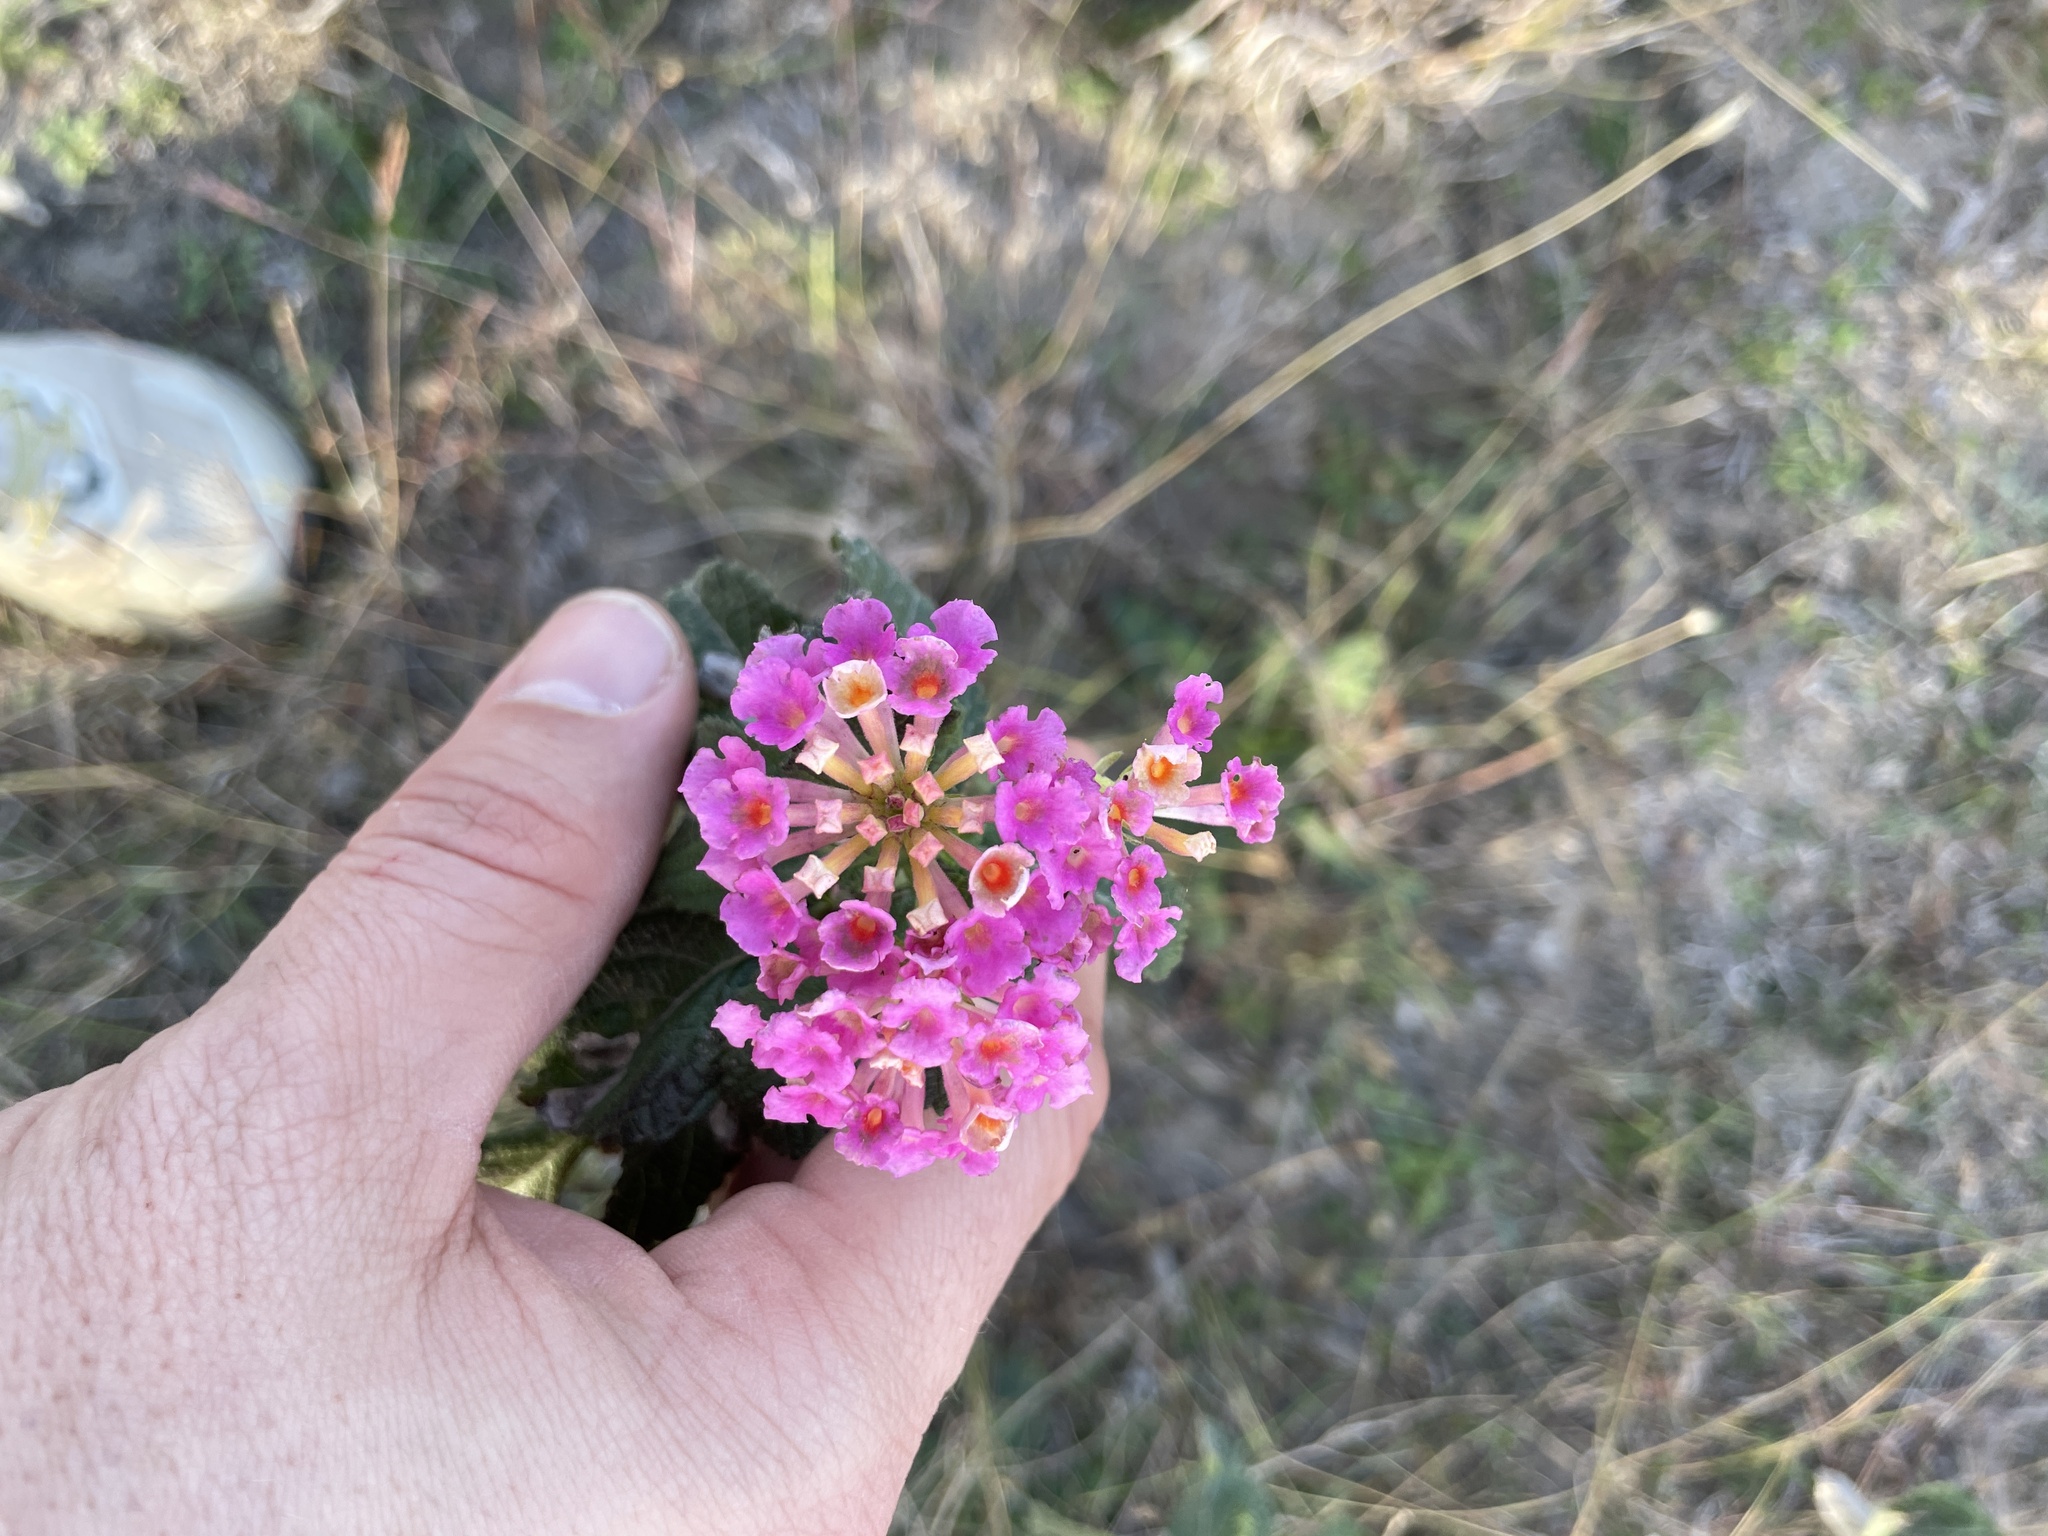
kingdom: Plantae
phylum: Tracheophyta
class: Magnoliopsida
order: Lamiales
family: Verbenaceae
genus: Lantana
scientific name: Lantana strigocamara
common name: Lantana
